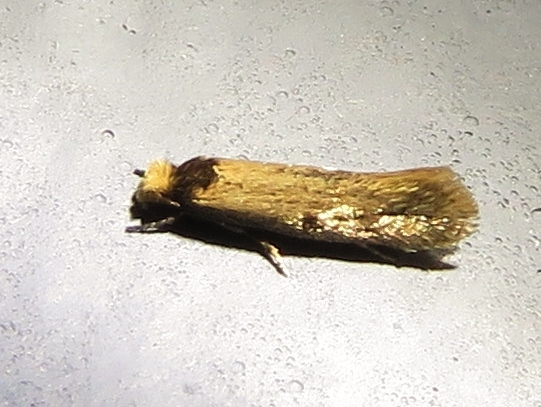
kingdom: Animalia
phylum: Arthropoda
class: Insecta
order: Lepidoptera
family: Meessiidae
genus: Homostinea
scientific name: Homostinea curviliniella
